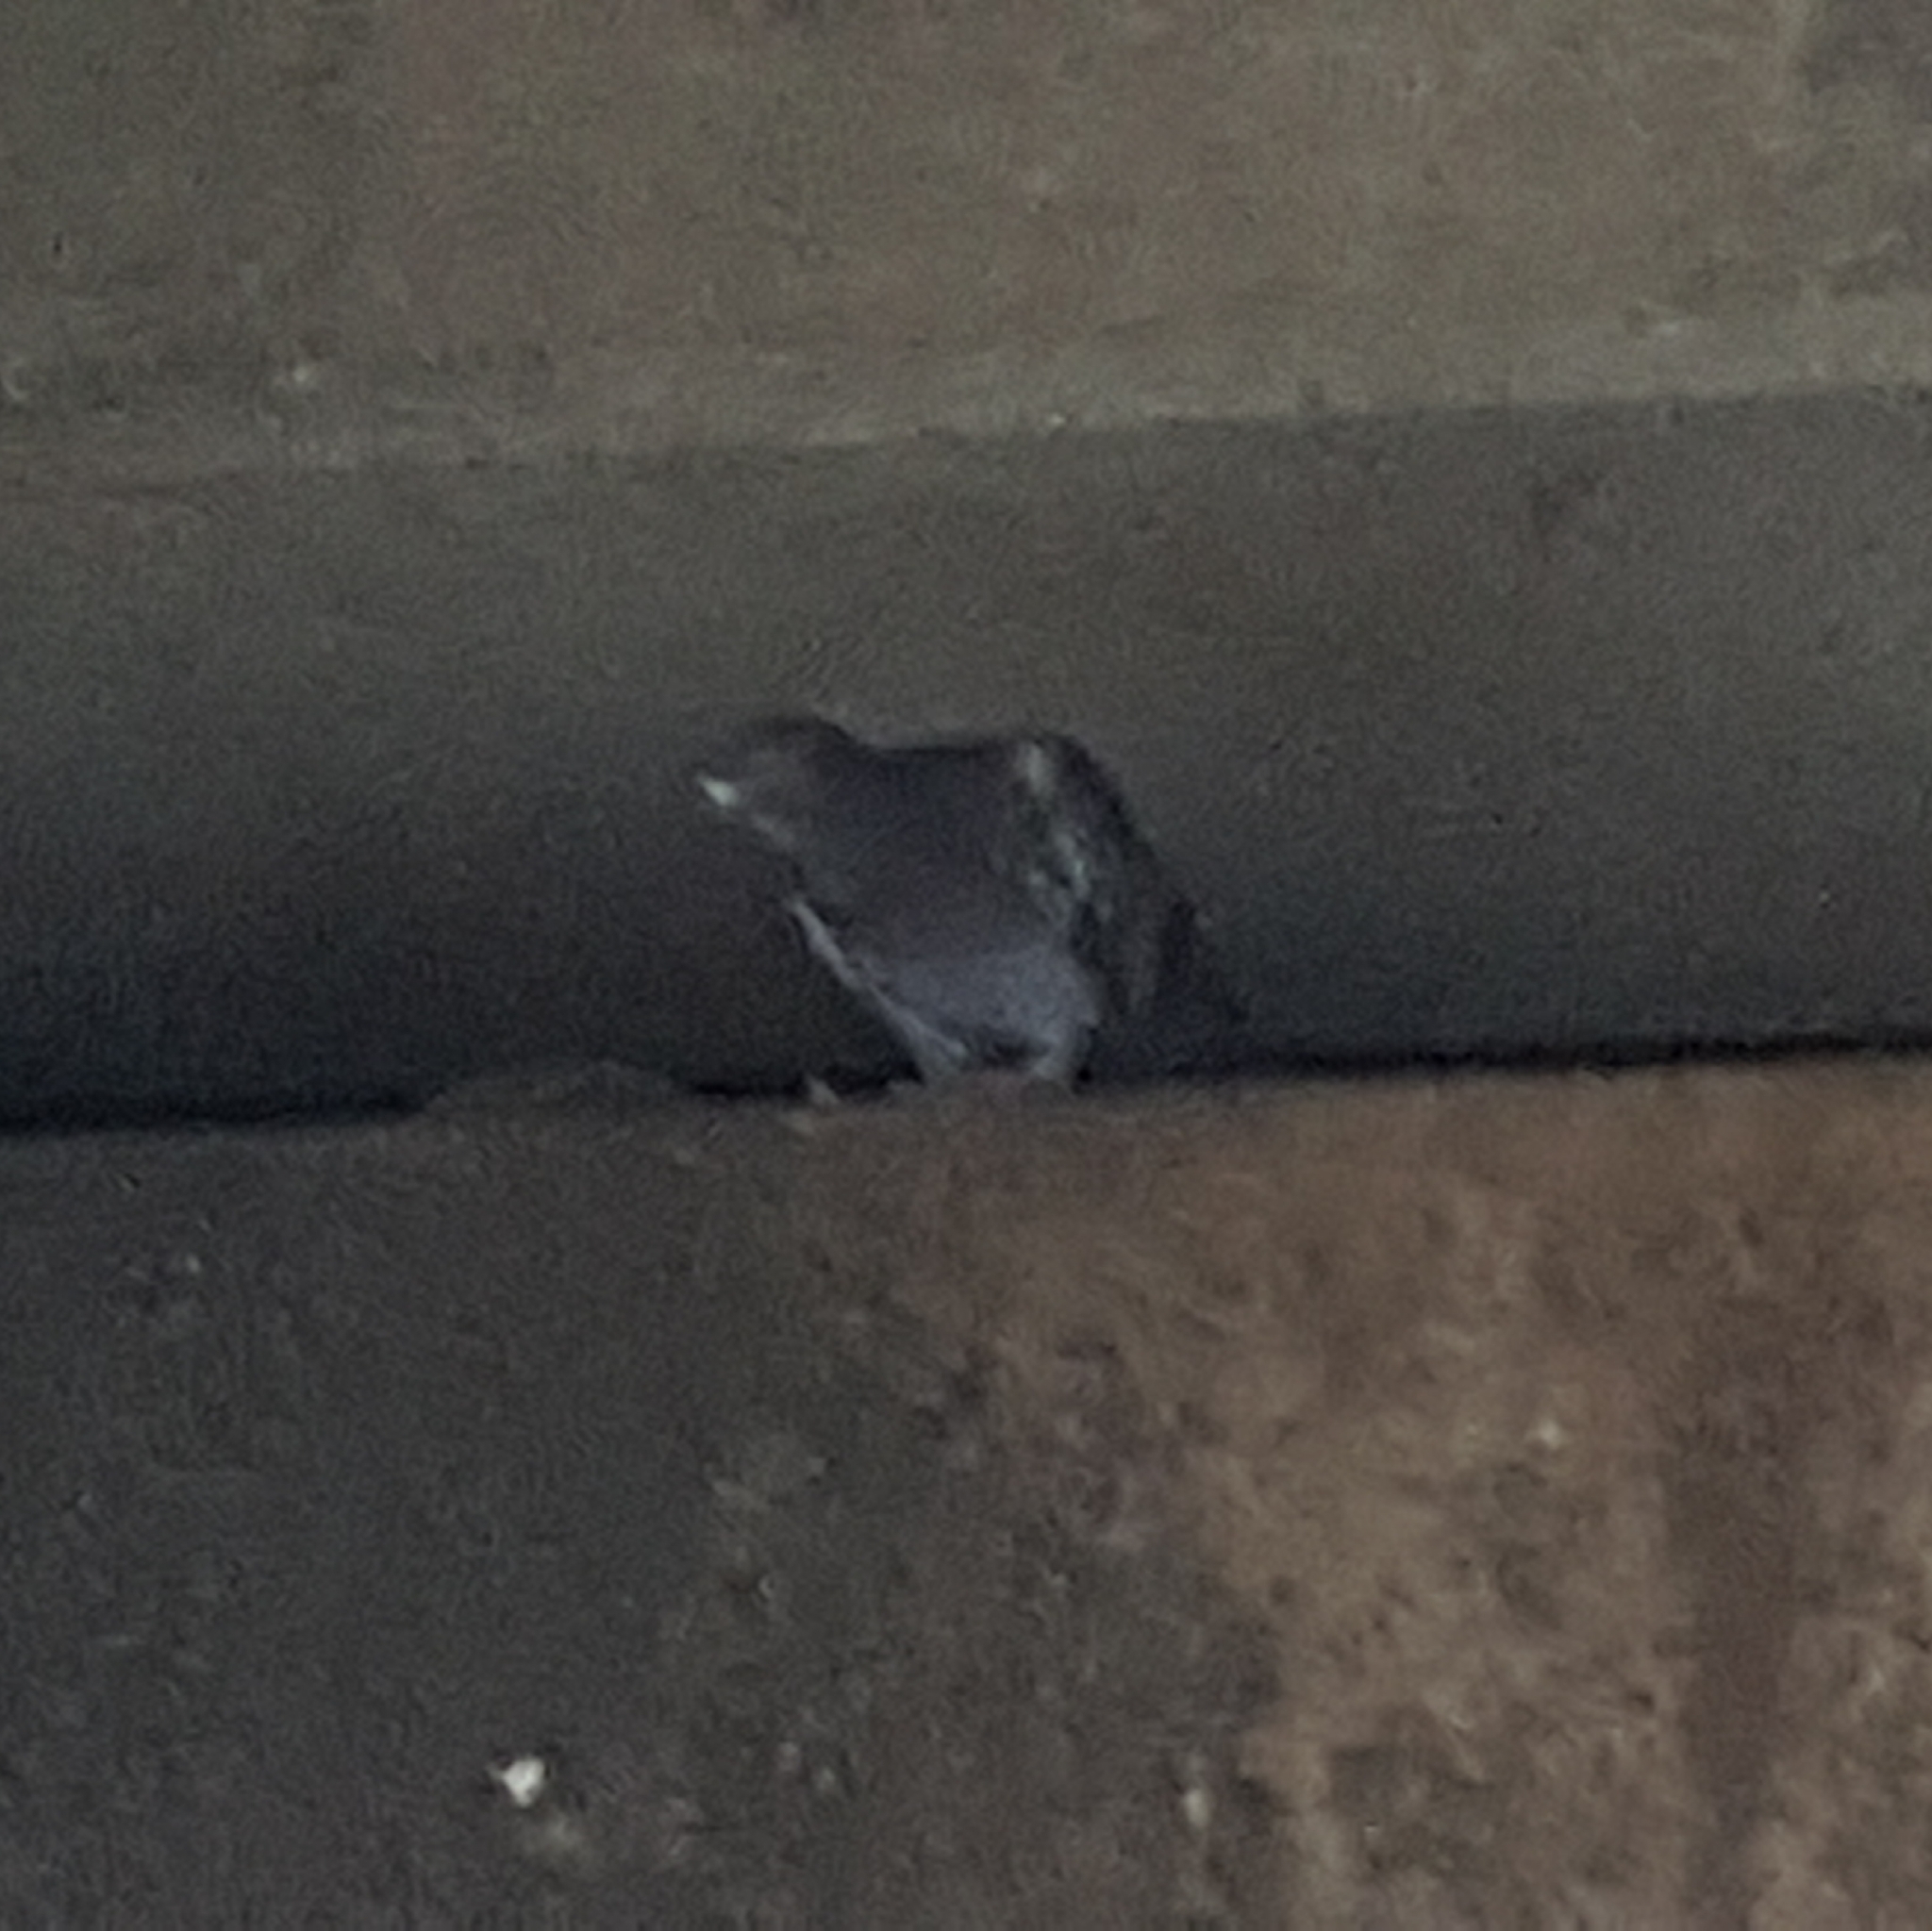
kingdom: Animalia
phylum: Chordata
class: Aves
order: Columbiformes
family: Columbidae
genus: Columba
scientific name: Columba livia
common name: Rock pigeon
